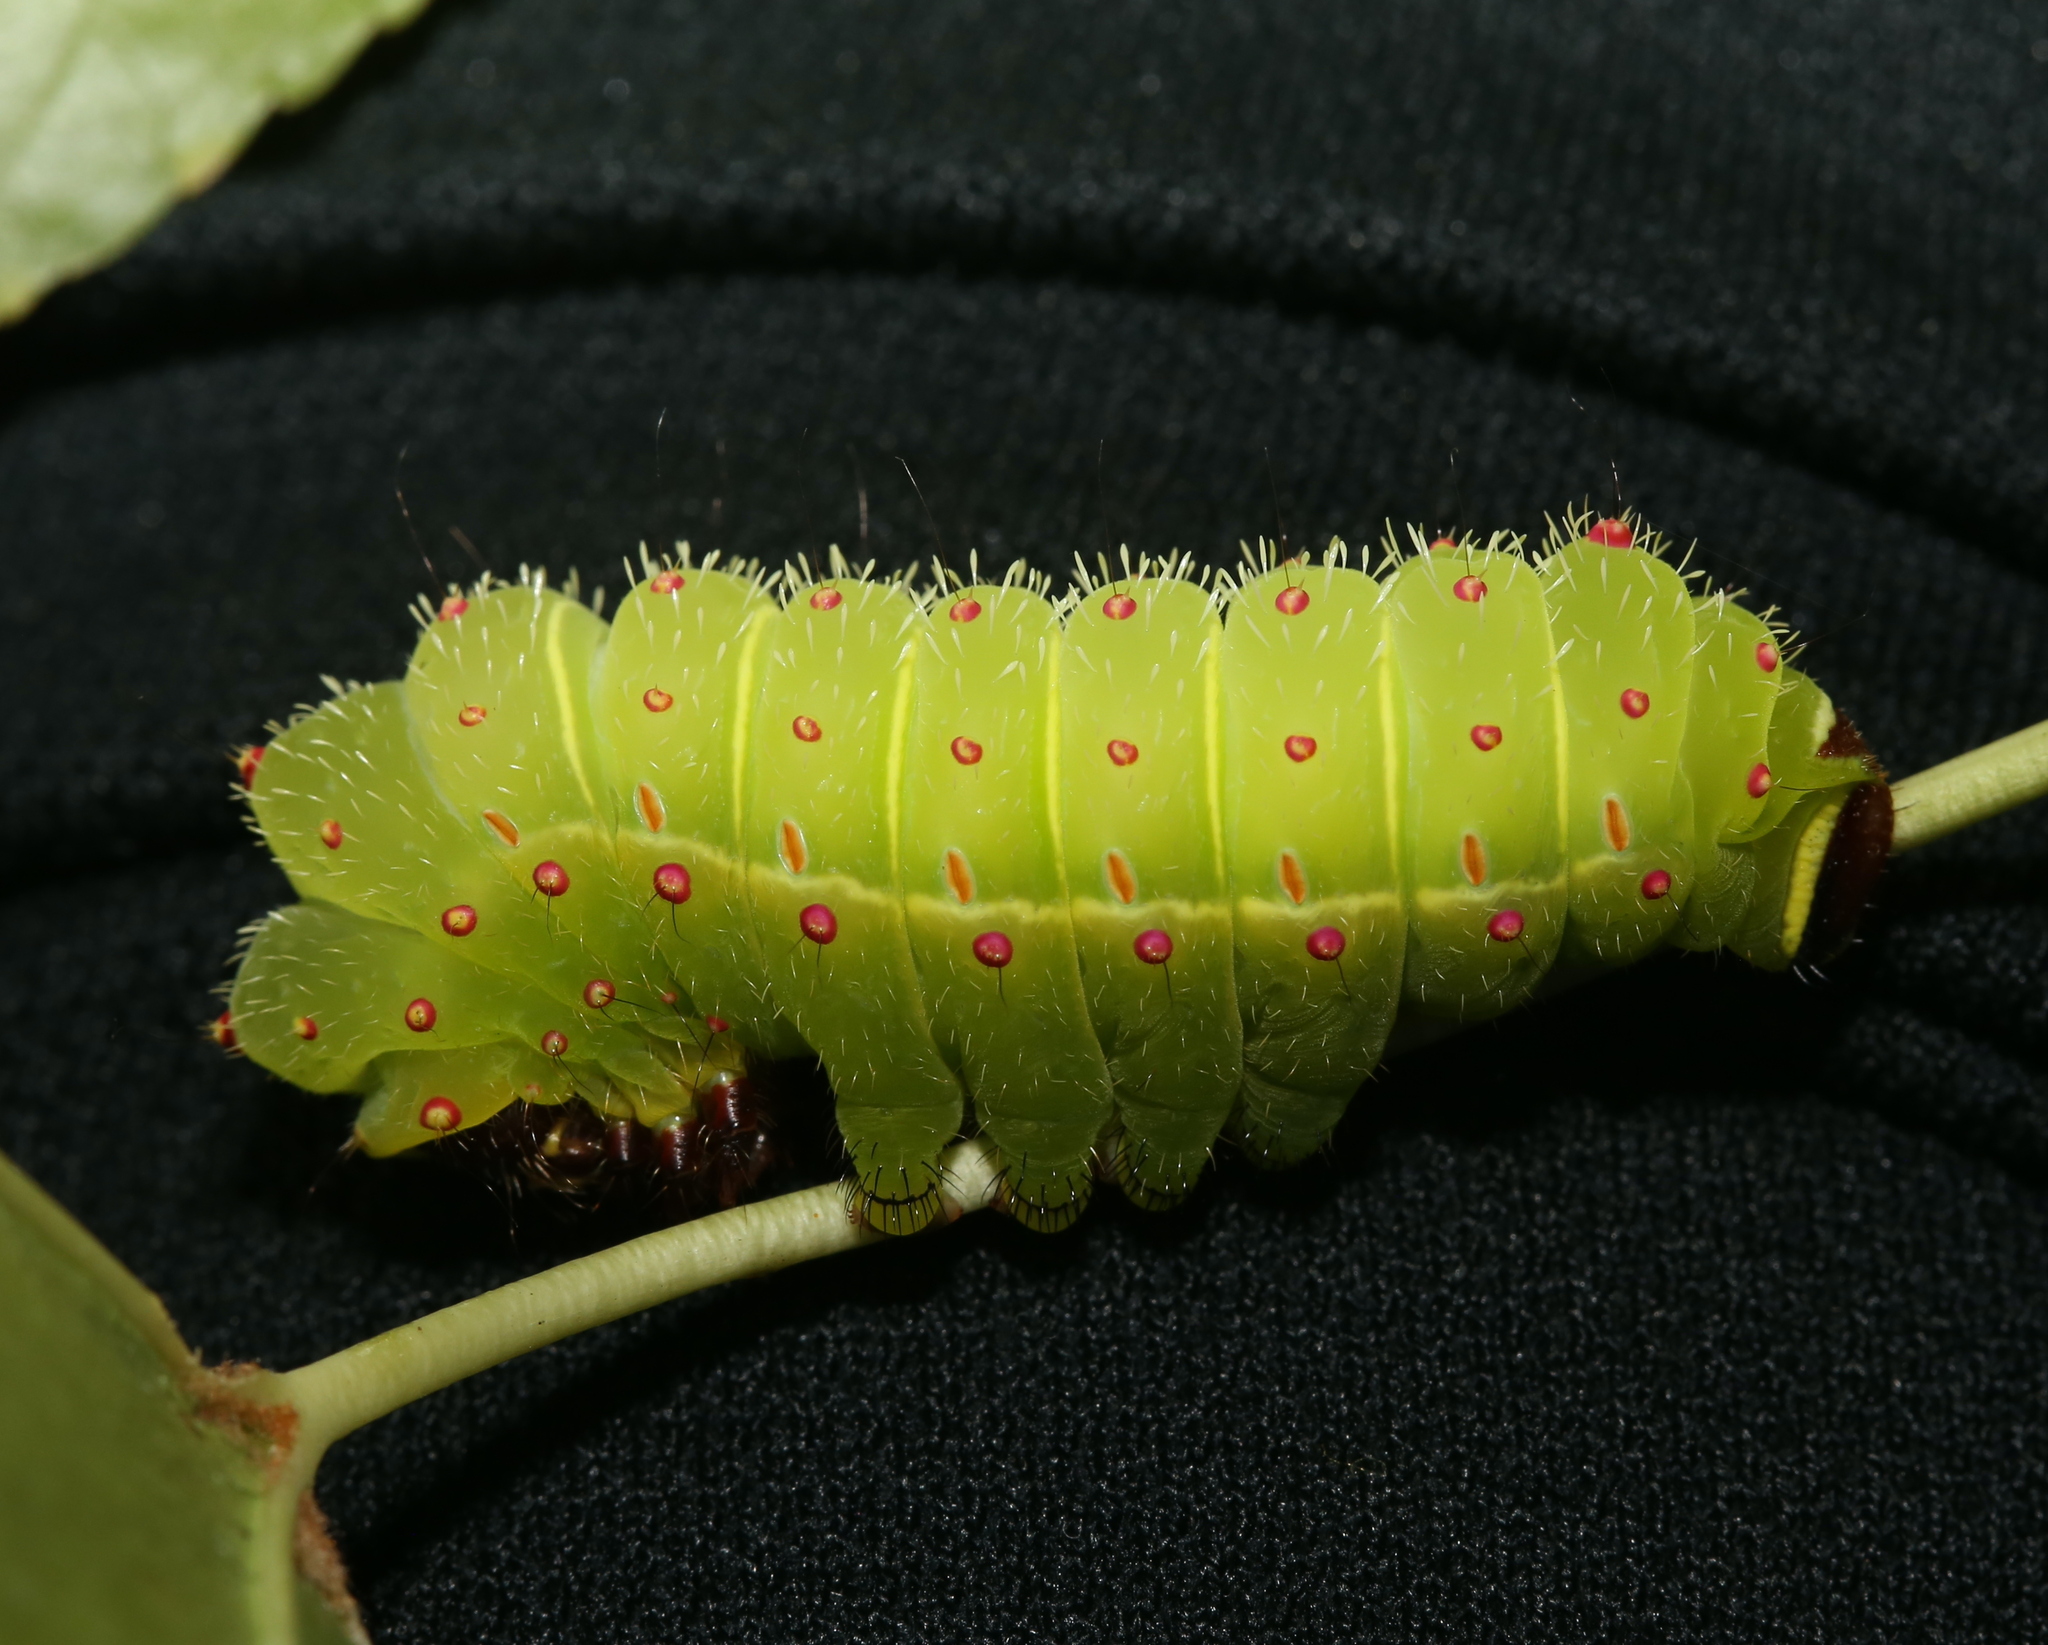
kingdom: Animalia
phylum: Arthropoda
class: Insecta
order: Lepidoptera
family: Saturniidae
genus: Actias
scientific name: Actias luna
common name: Luna moth
